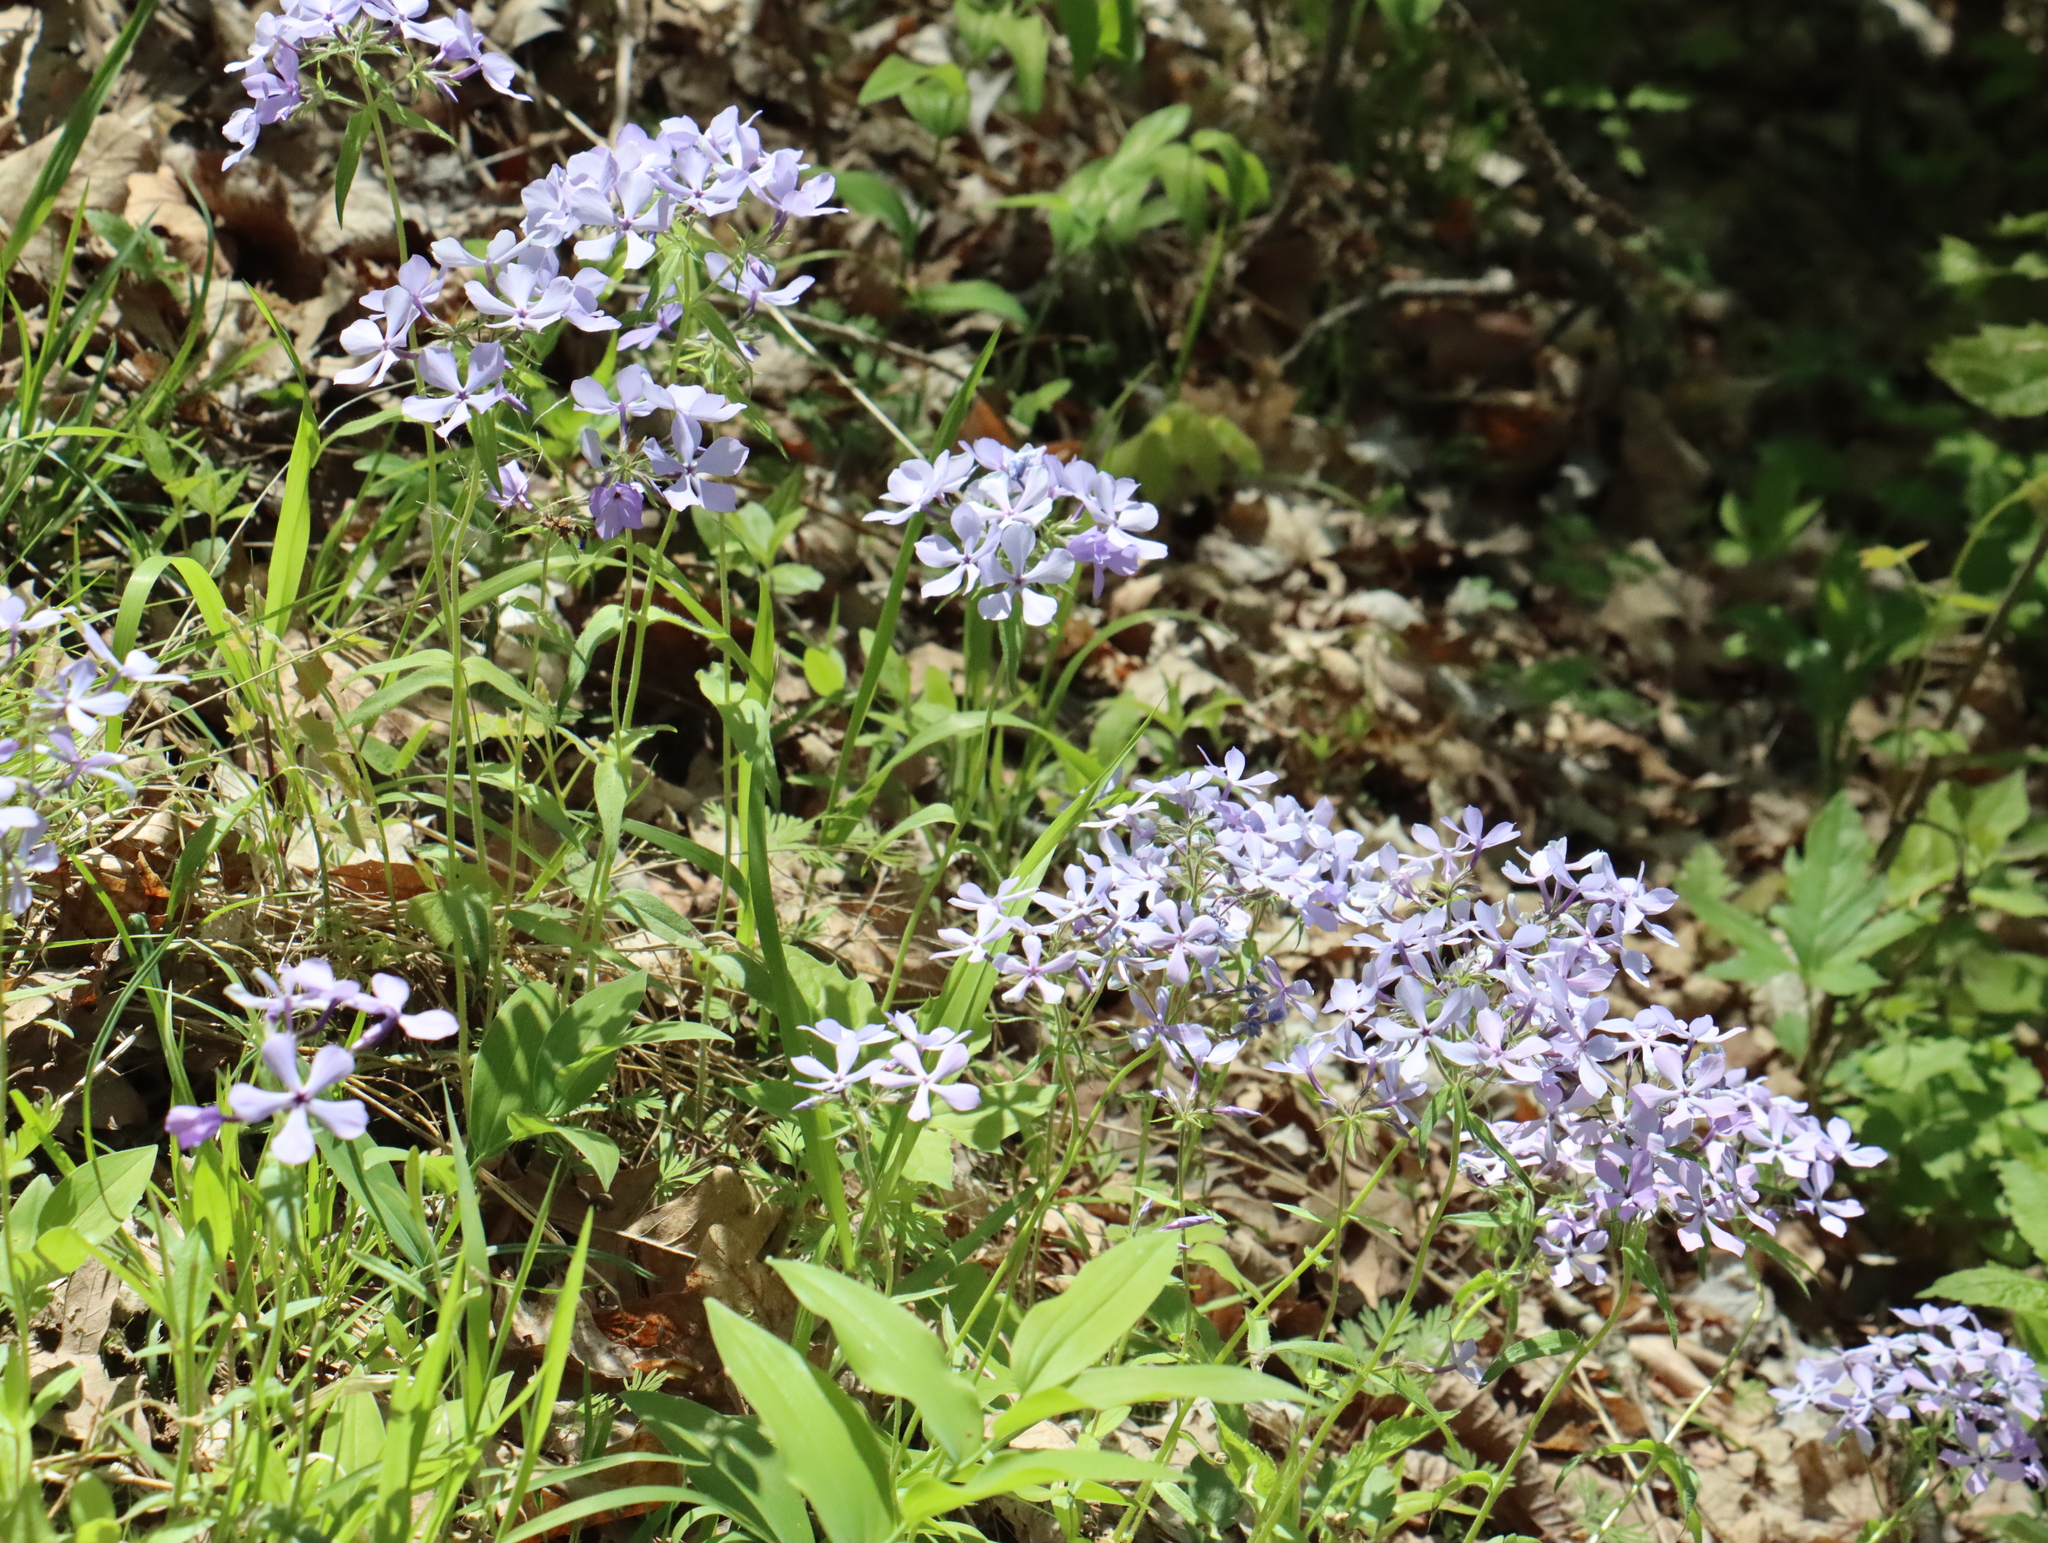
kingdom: Plantae
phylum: Tracheophyta
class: Magnoliopsida
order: Ericales
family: Polemoniaceae
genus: Phlox
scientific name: Phlox divaricata
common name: Blue phlox
